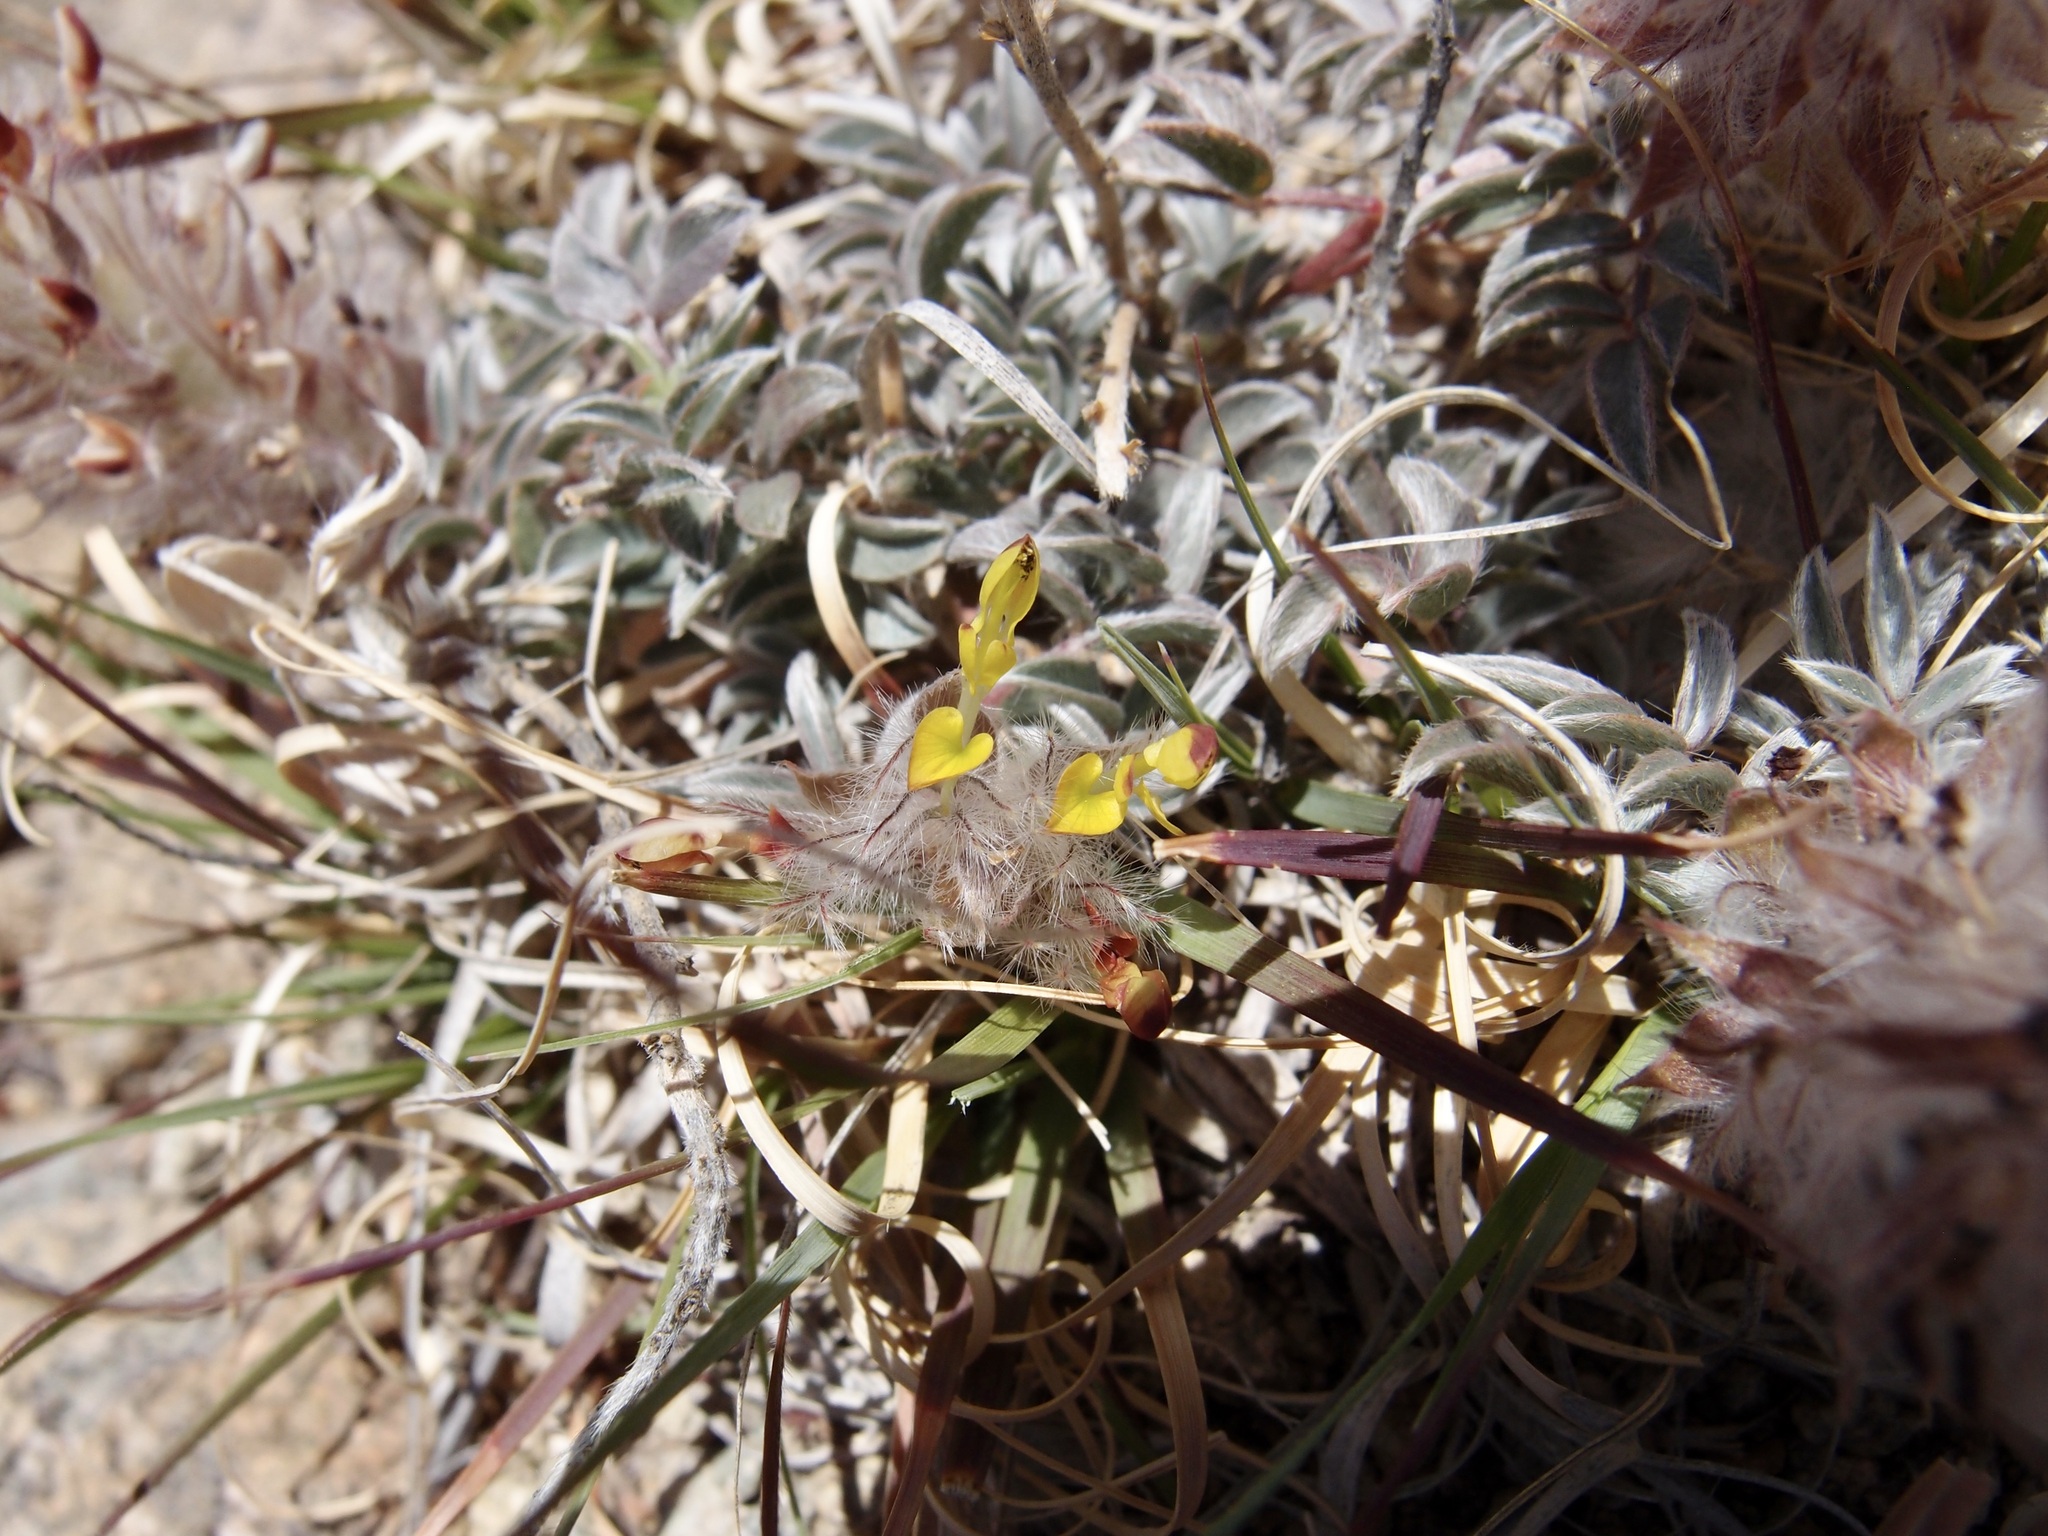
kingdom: Plantae
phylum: Tracheophyta
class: Magnoliopsida
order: Fabales
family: Fabaceae
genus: Dalea
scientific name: Dalea wrightii
